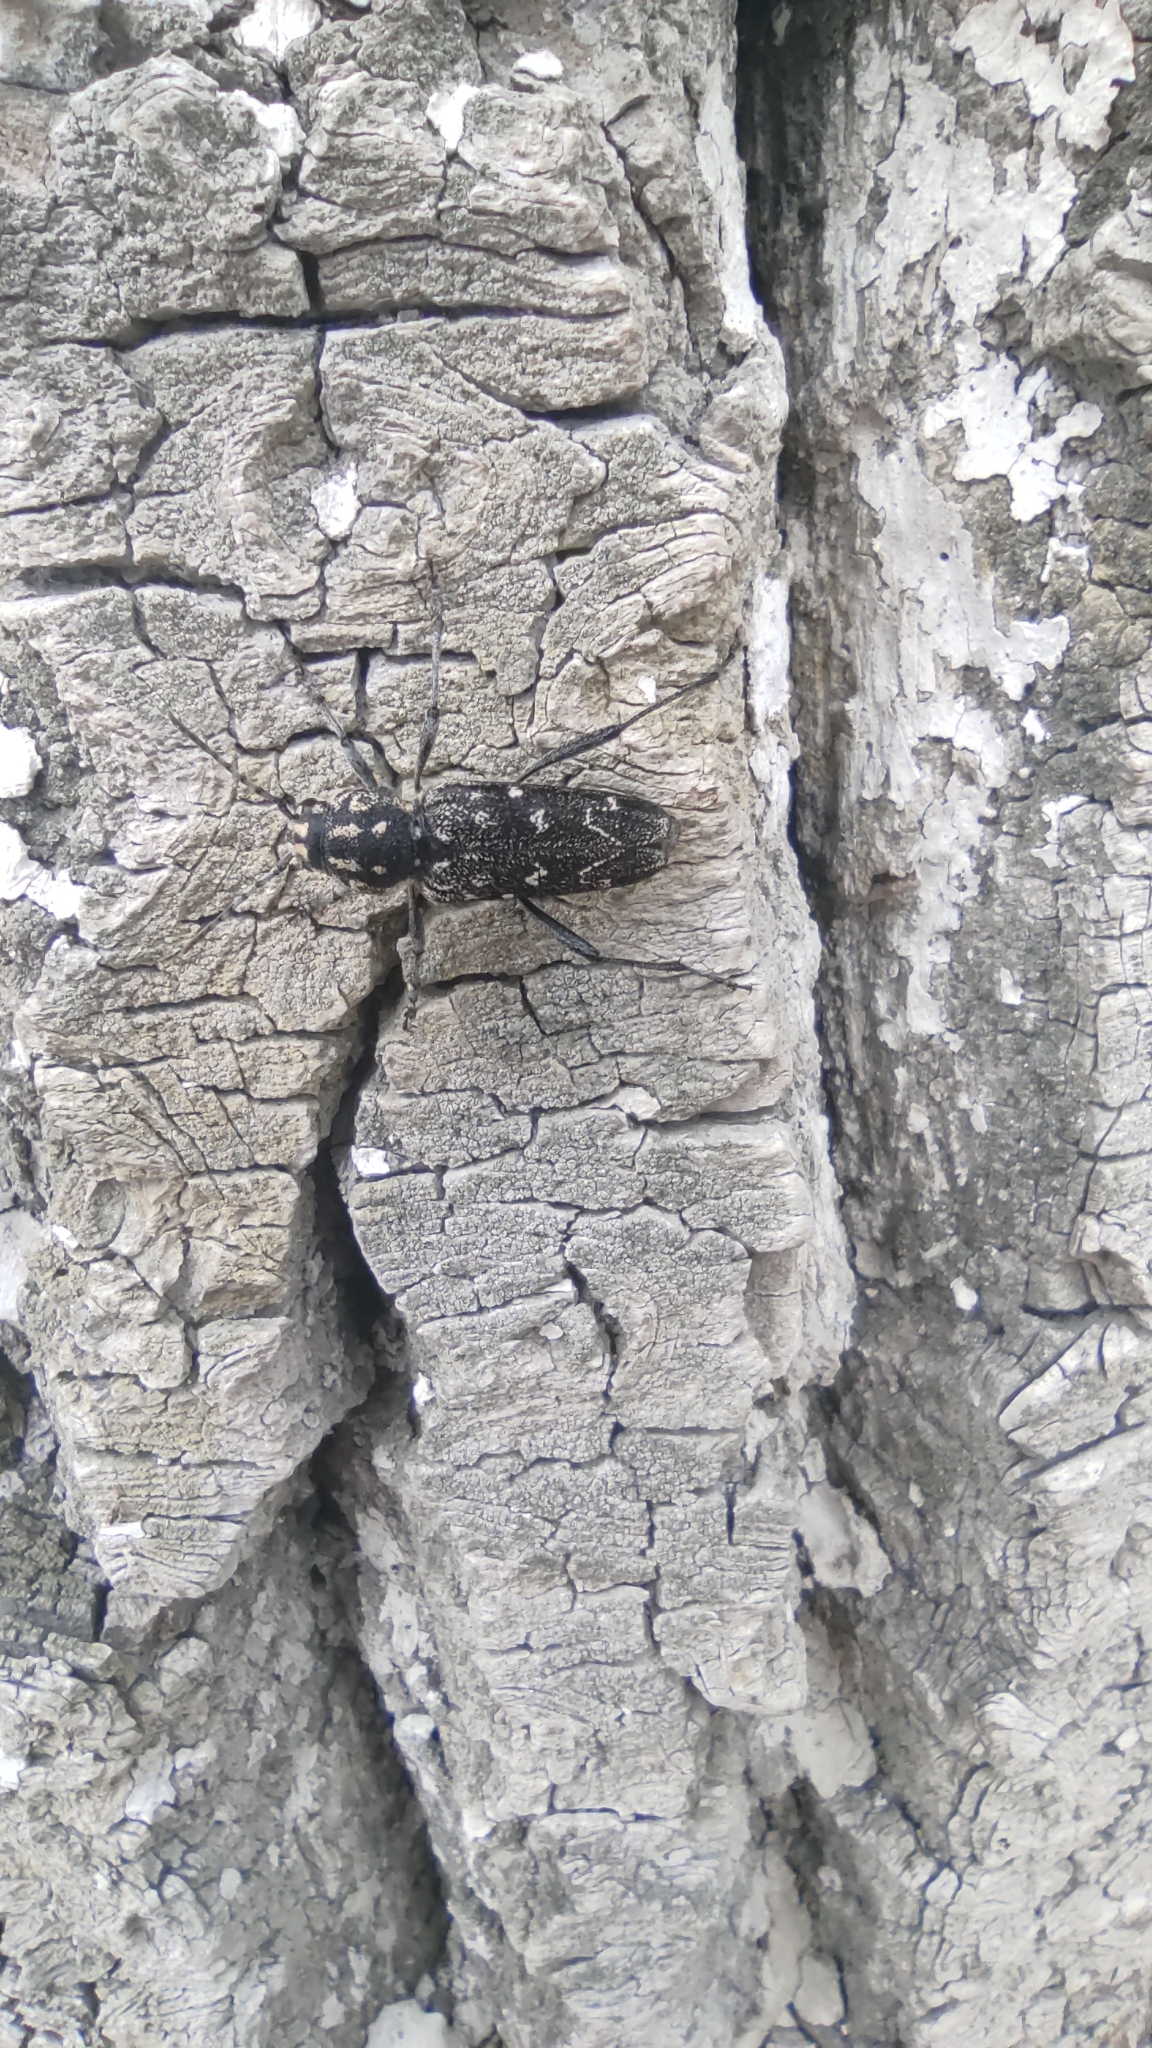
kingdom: Animalia
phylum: Arthropoda
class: Insecta
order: Coleoptera
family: Cerambycidae
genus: Xylotrechus
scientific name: Xylotrechus rusticus
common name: Grey tiger long-horned beetle
